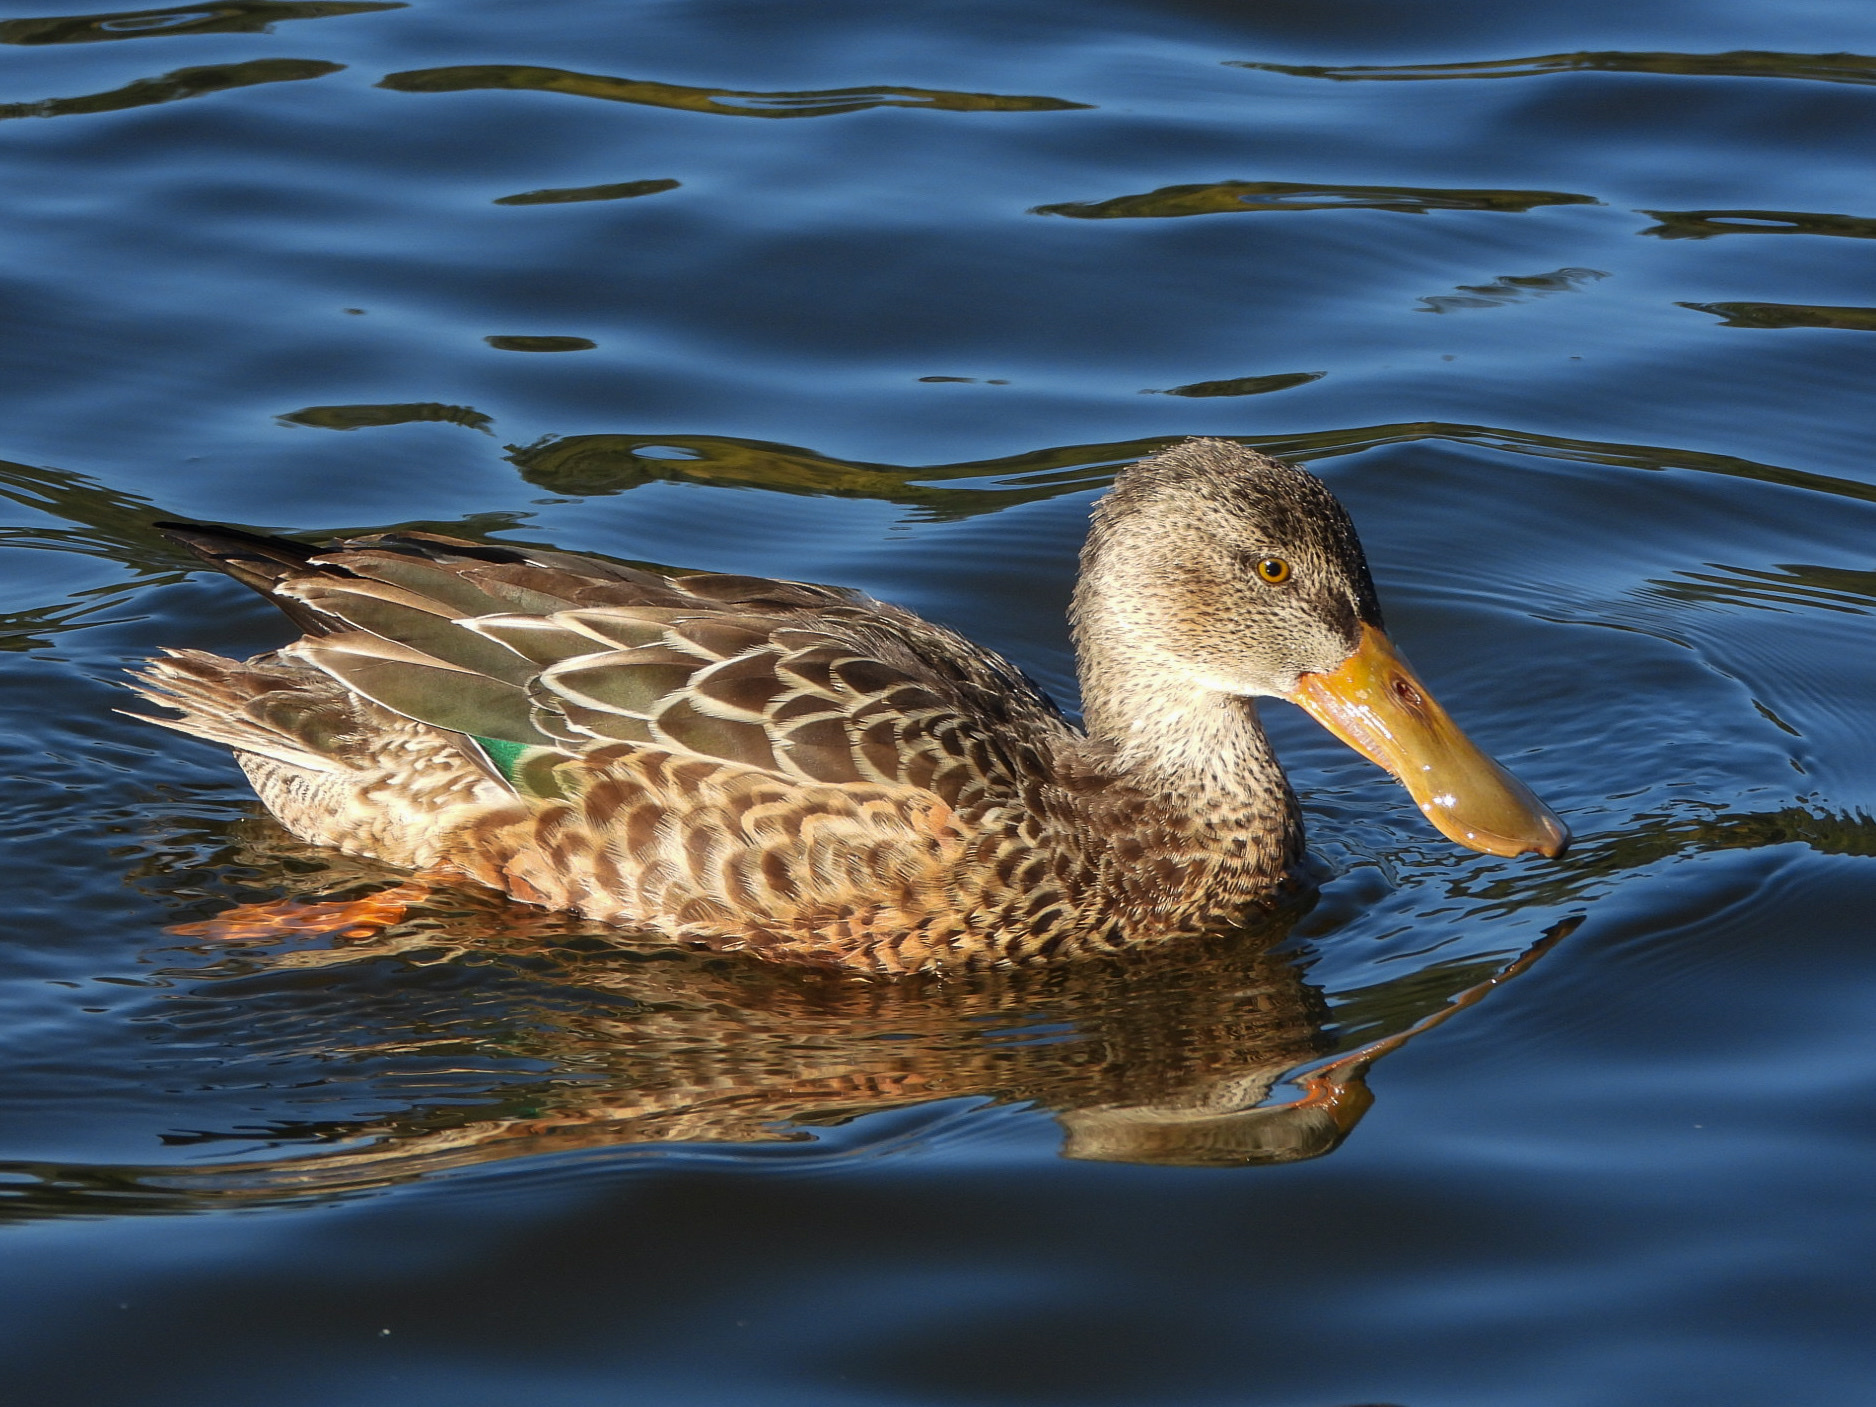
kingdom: Animalia
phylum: Chordata
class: Aves
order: Anseriformes
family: Anatidae
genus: Spatula
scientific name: Spatula clypeata
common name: Northern shoveler
